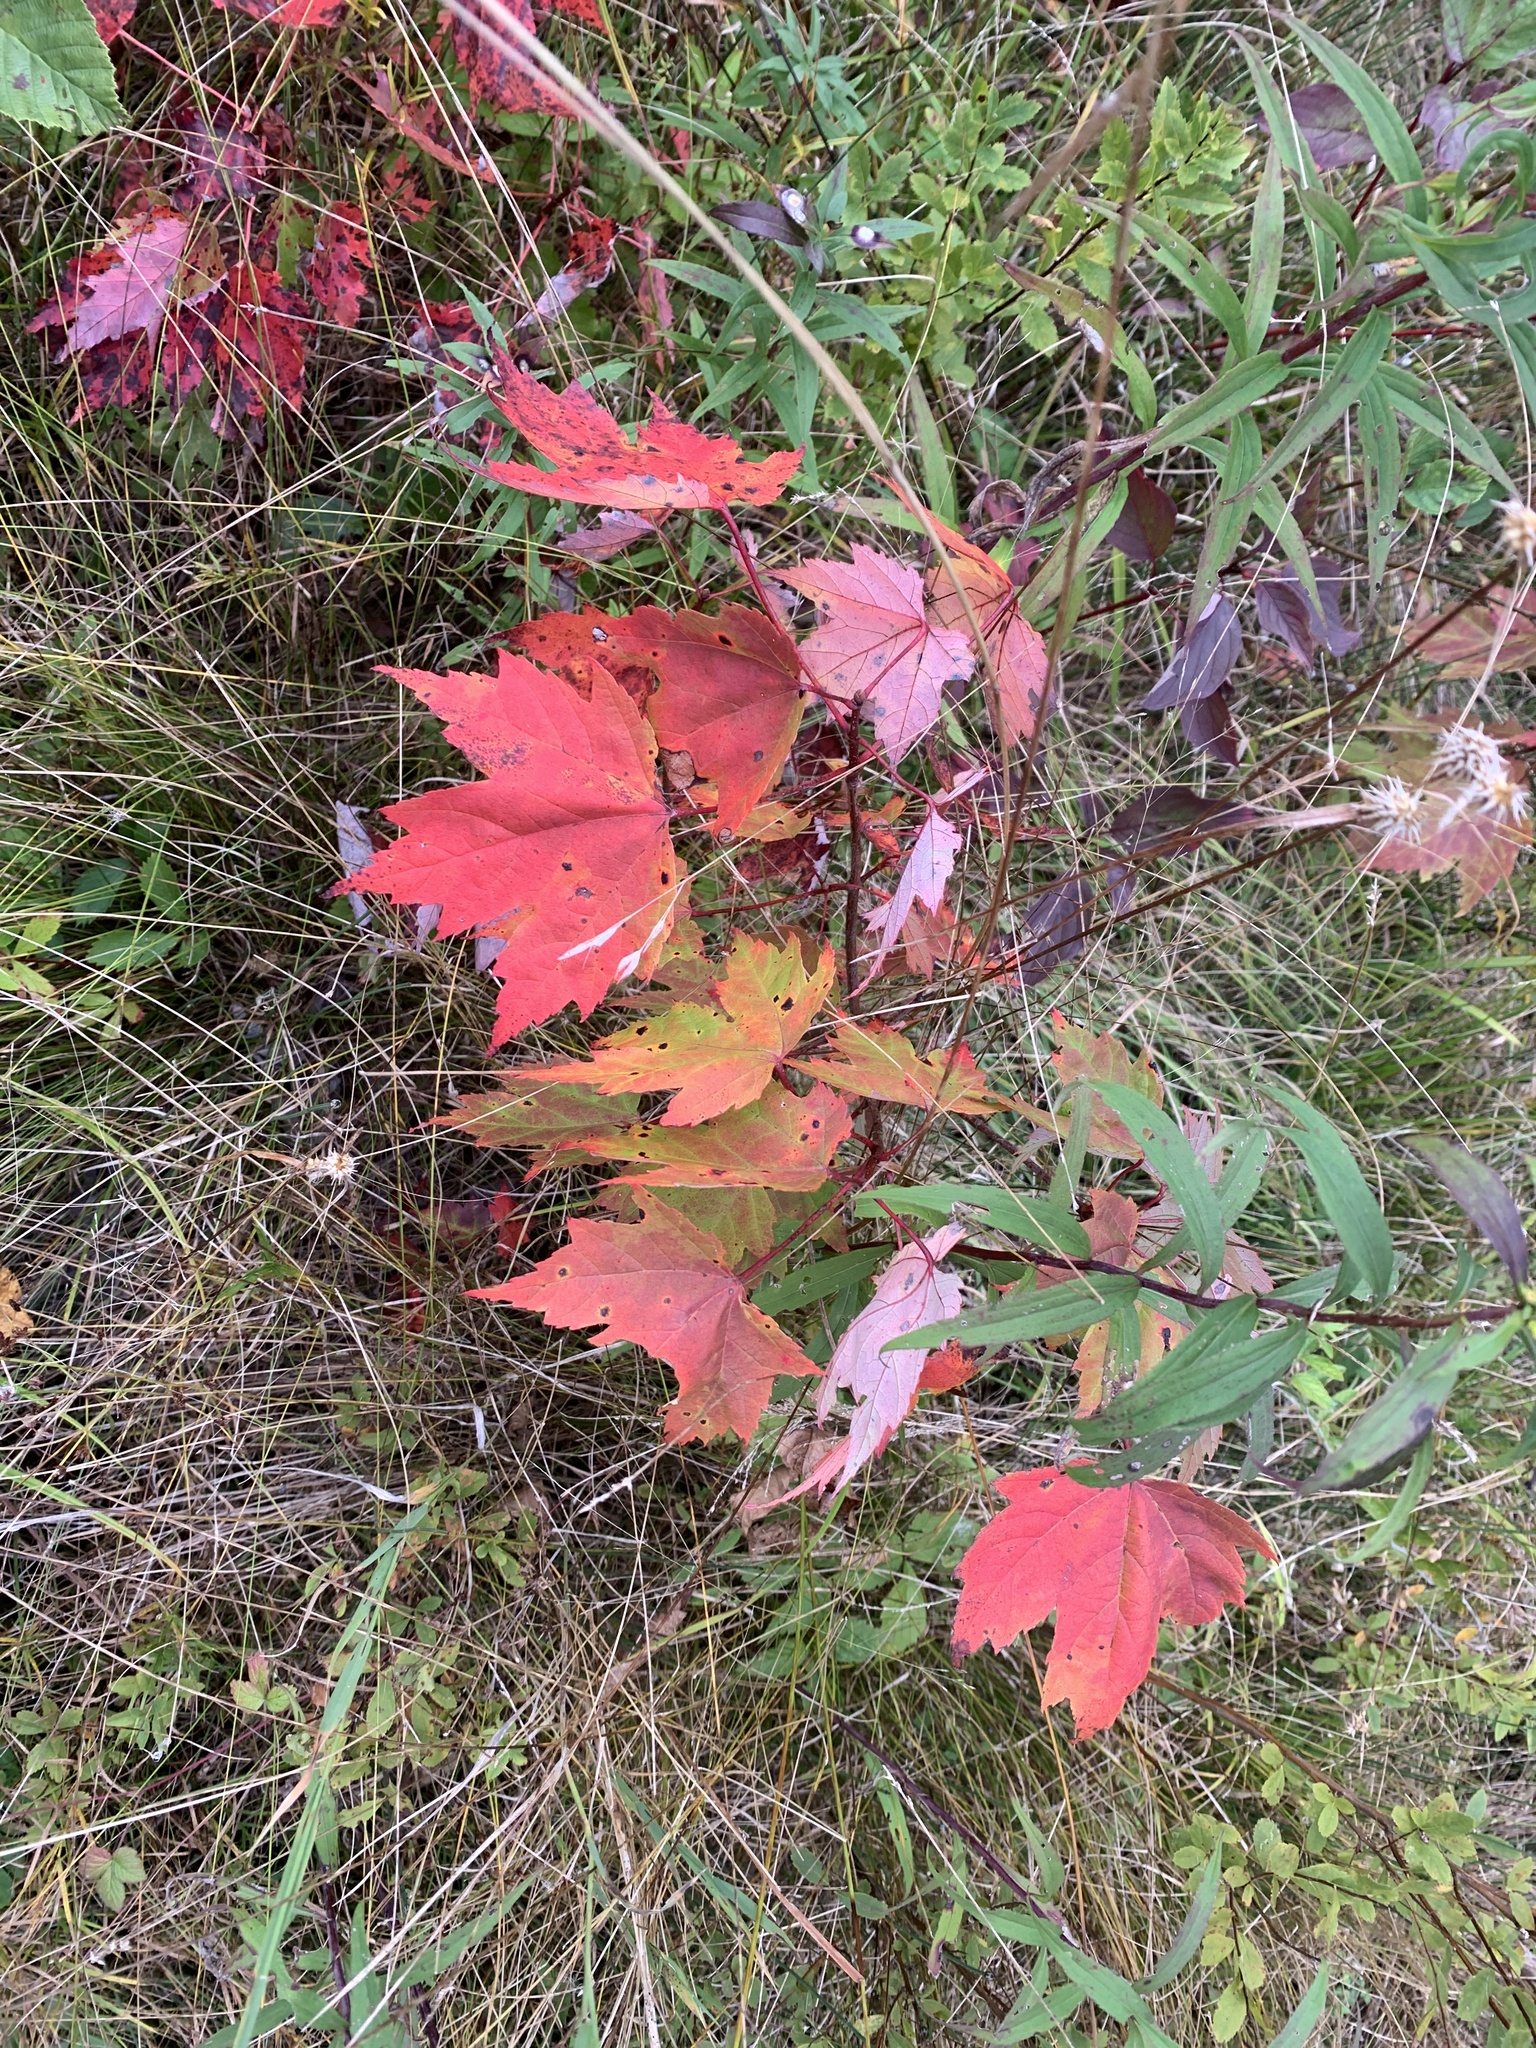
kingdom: Plantae
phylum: Tracheophyta
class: Magnoliopsida
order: Sapindales
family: Sapindaceae
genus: Acer
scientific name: Acer rubrum
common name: Red maple
